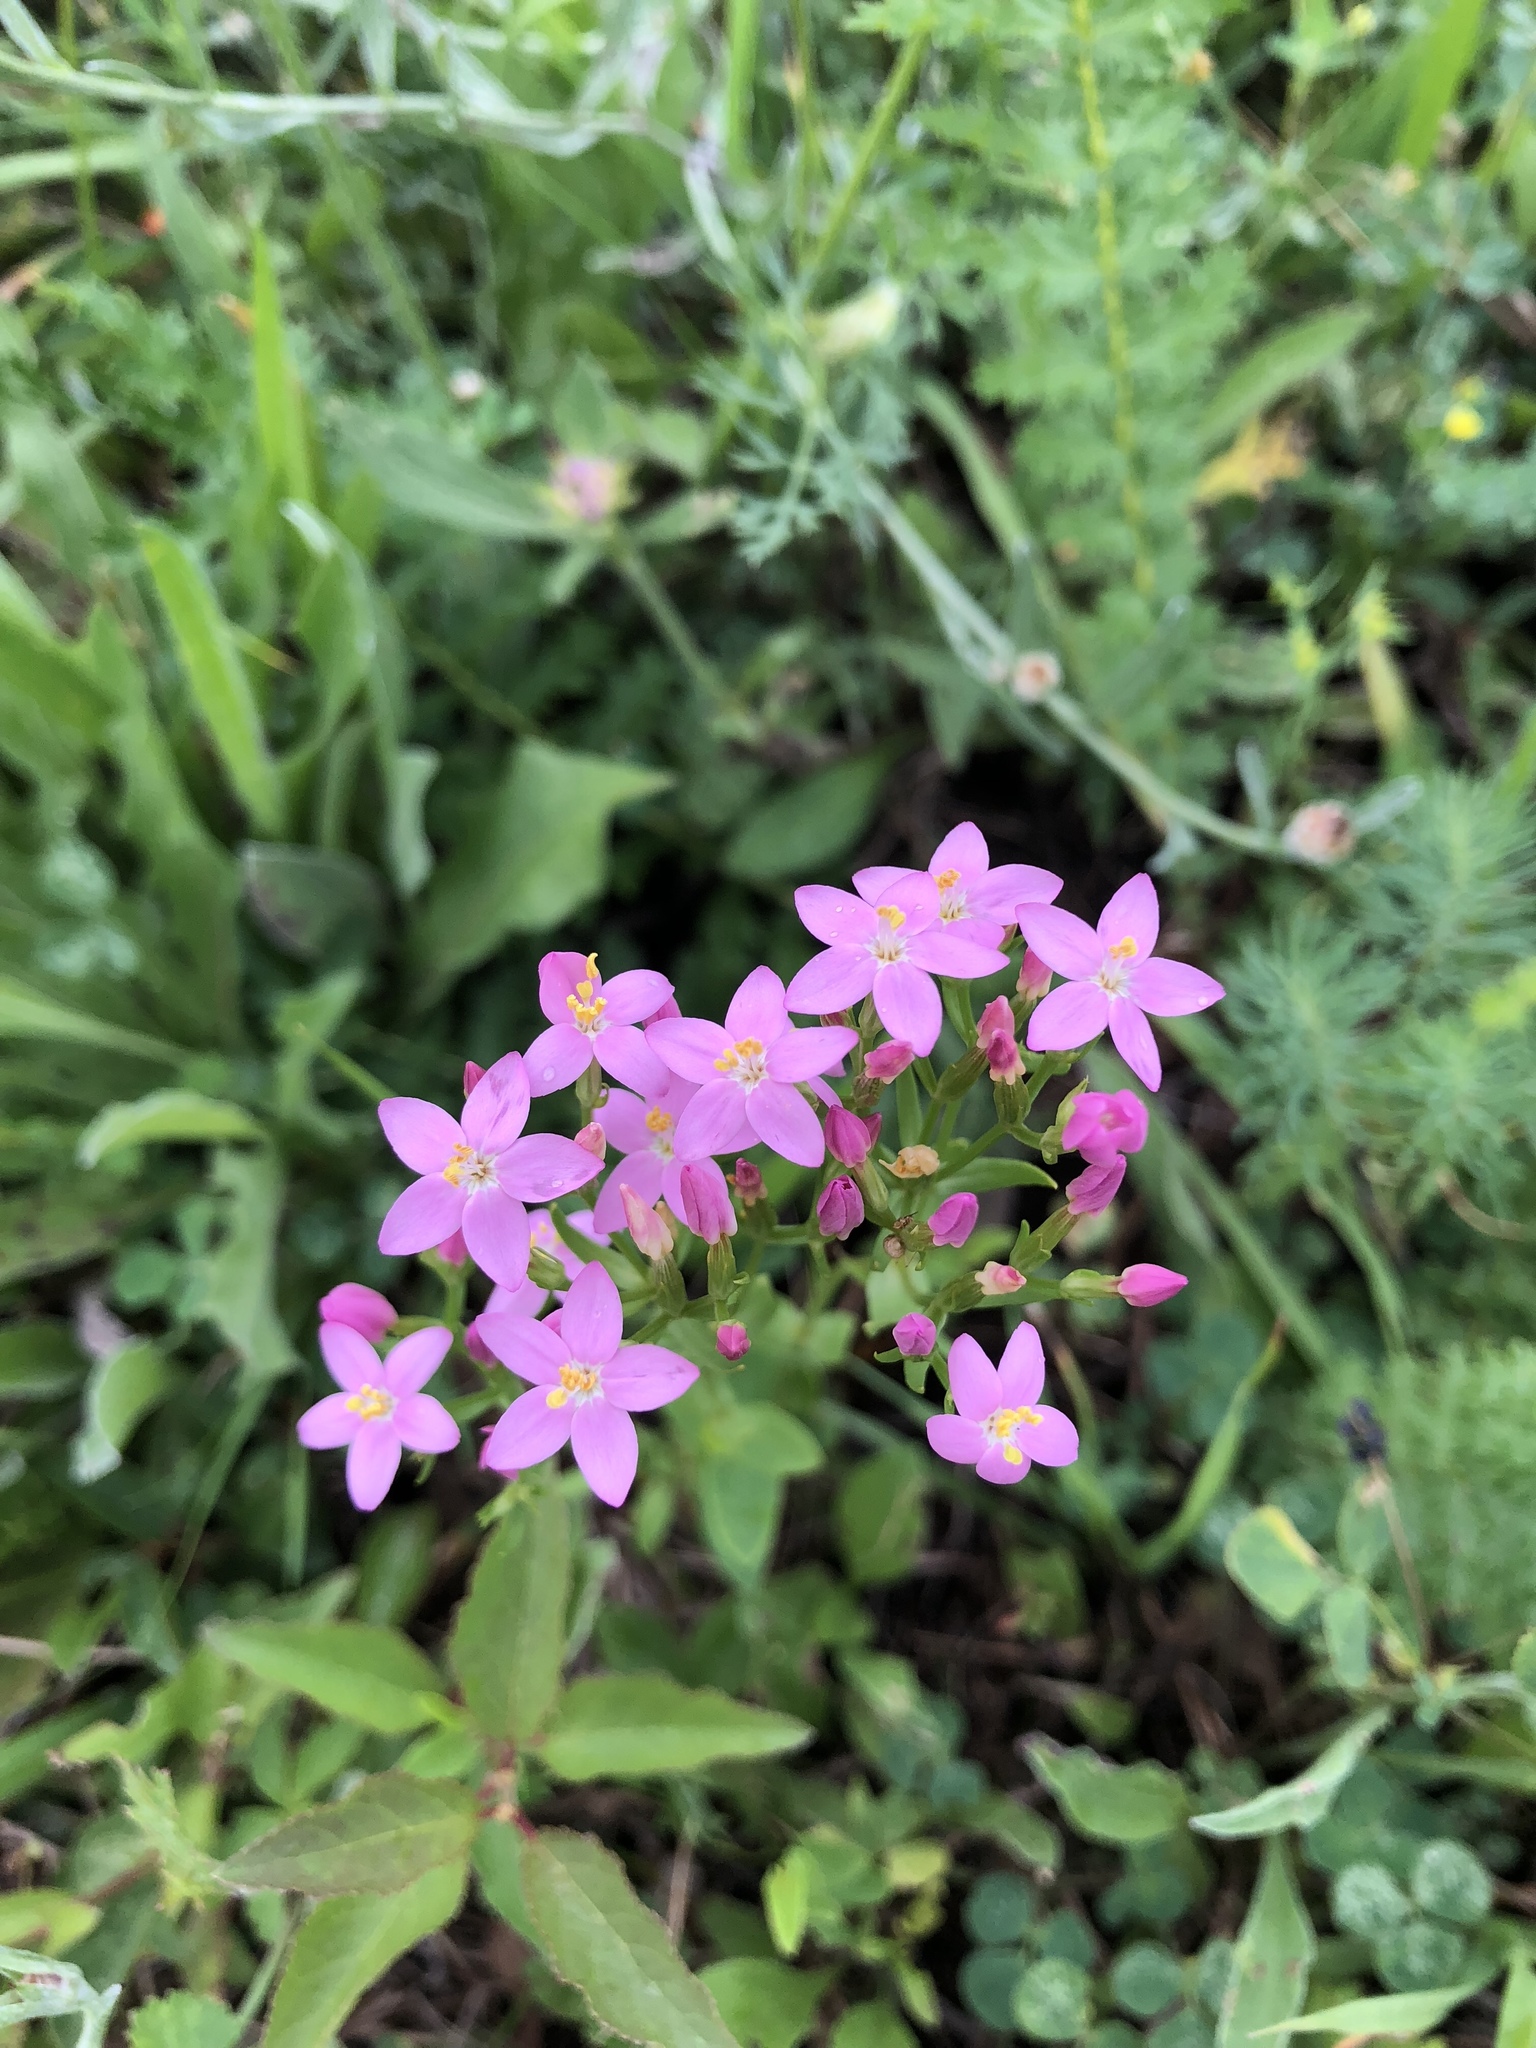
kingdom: Plantae
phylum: Tracheophyta
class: Magnoliopsida
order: Gentianales
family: Gentianaceae
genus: Centaurium
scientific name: Centaurium erythraea
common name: Common centaury
